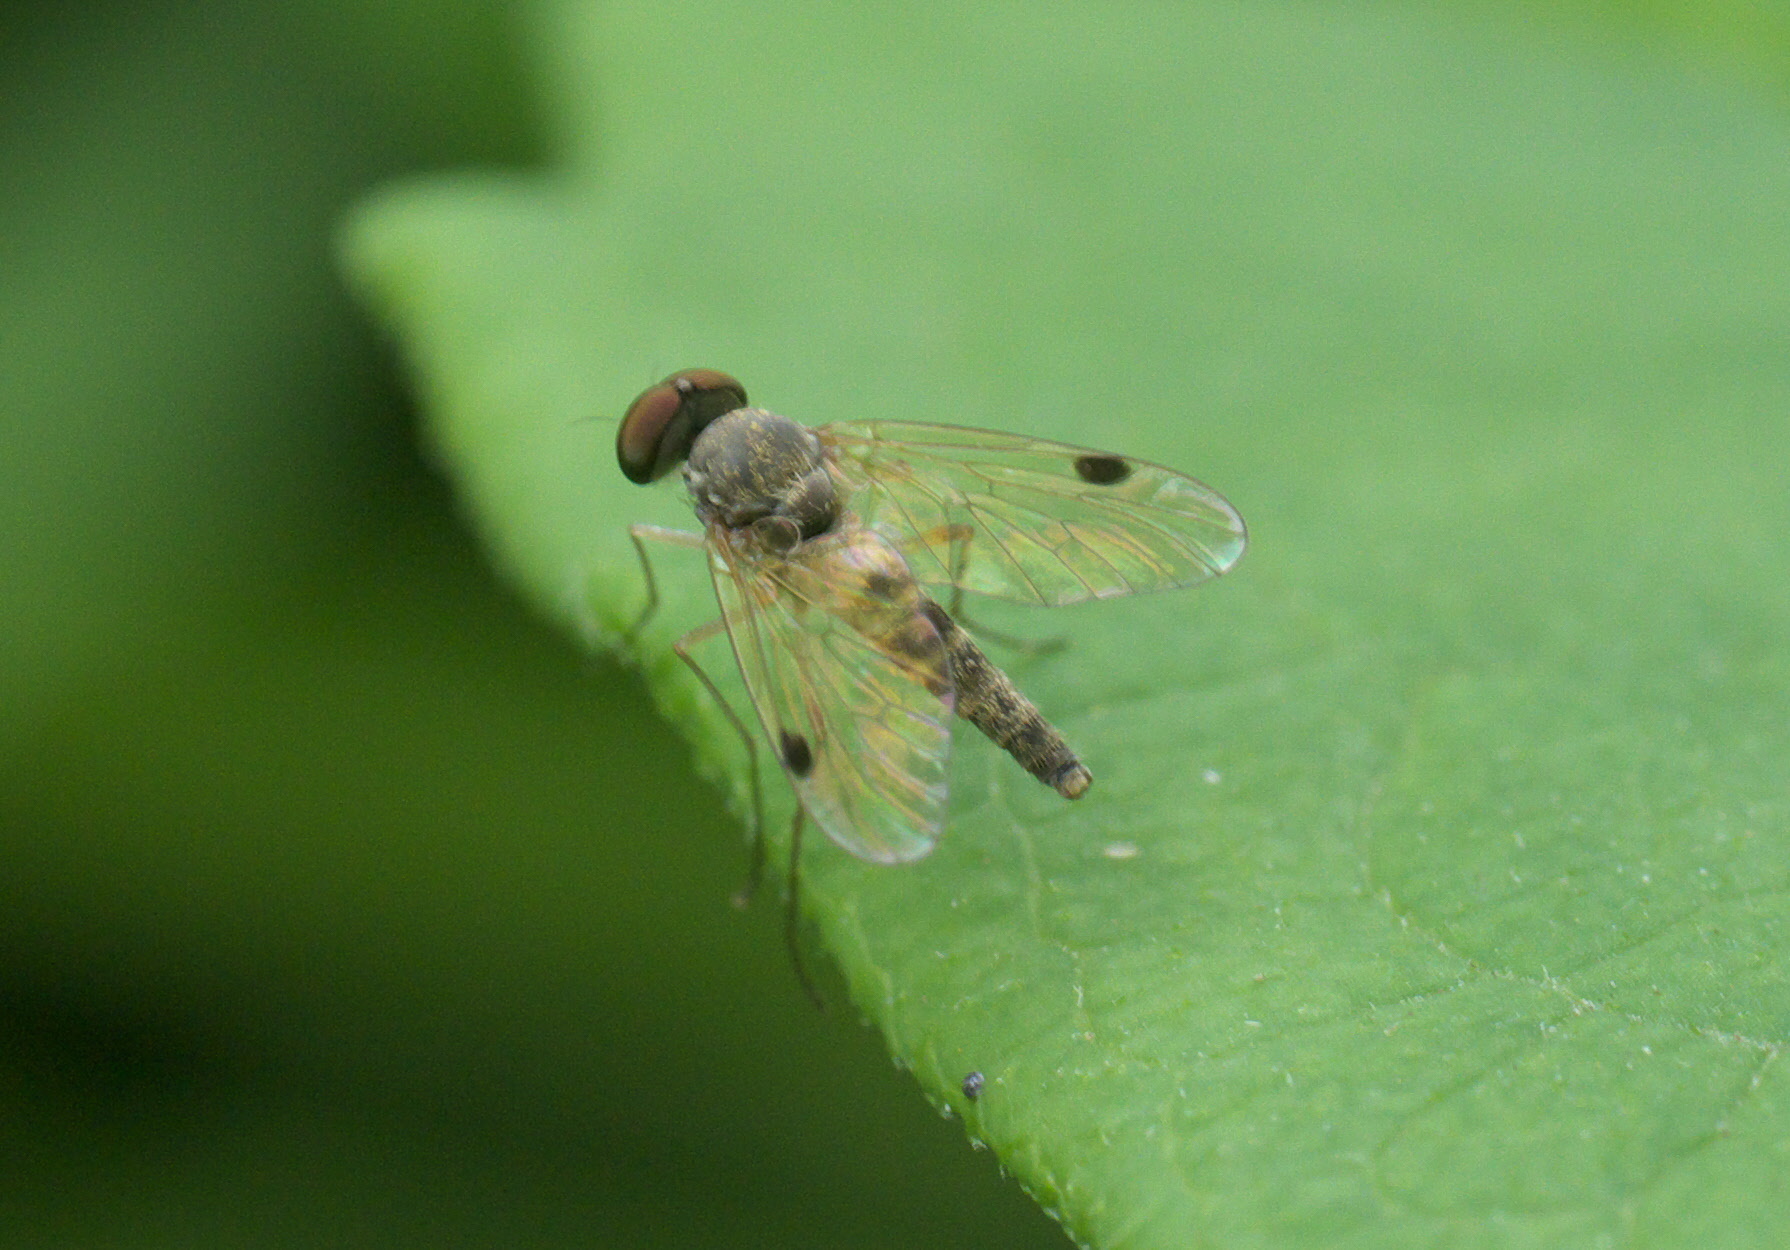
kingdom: Animalia
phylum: Arthropoda
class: Insecta
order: Diptera
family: Rhagionidae
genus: Chrysopilus
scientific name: Chrysopilus modestus
